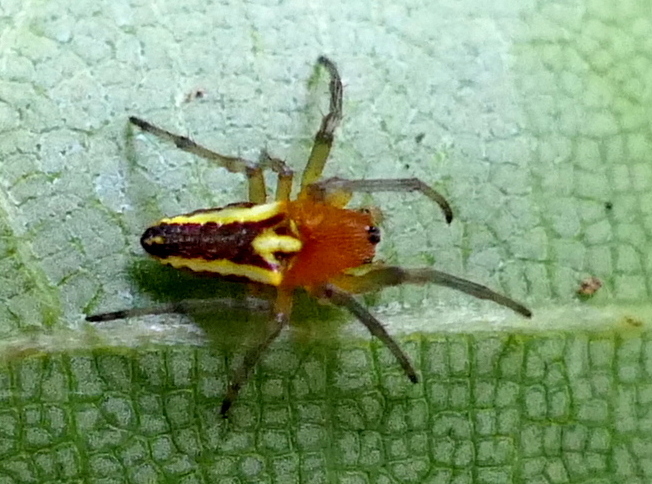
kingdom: Animalia
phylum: Arthropoda
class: Arachnida
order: Araneae
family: Araneidae
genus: Alpaida
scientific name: Alpaida bicornuta
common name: Orb weavers
